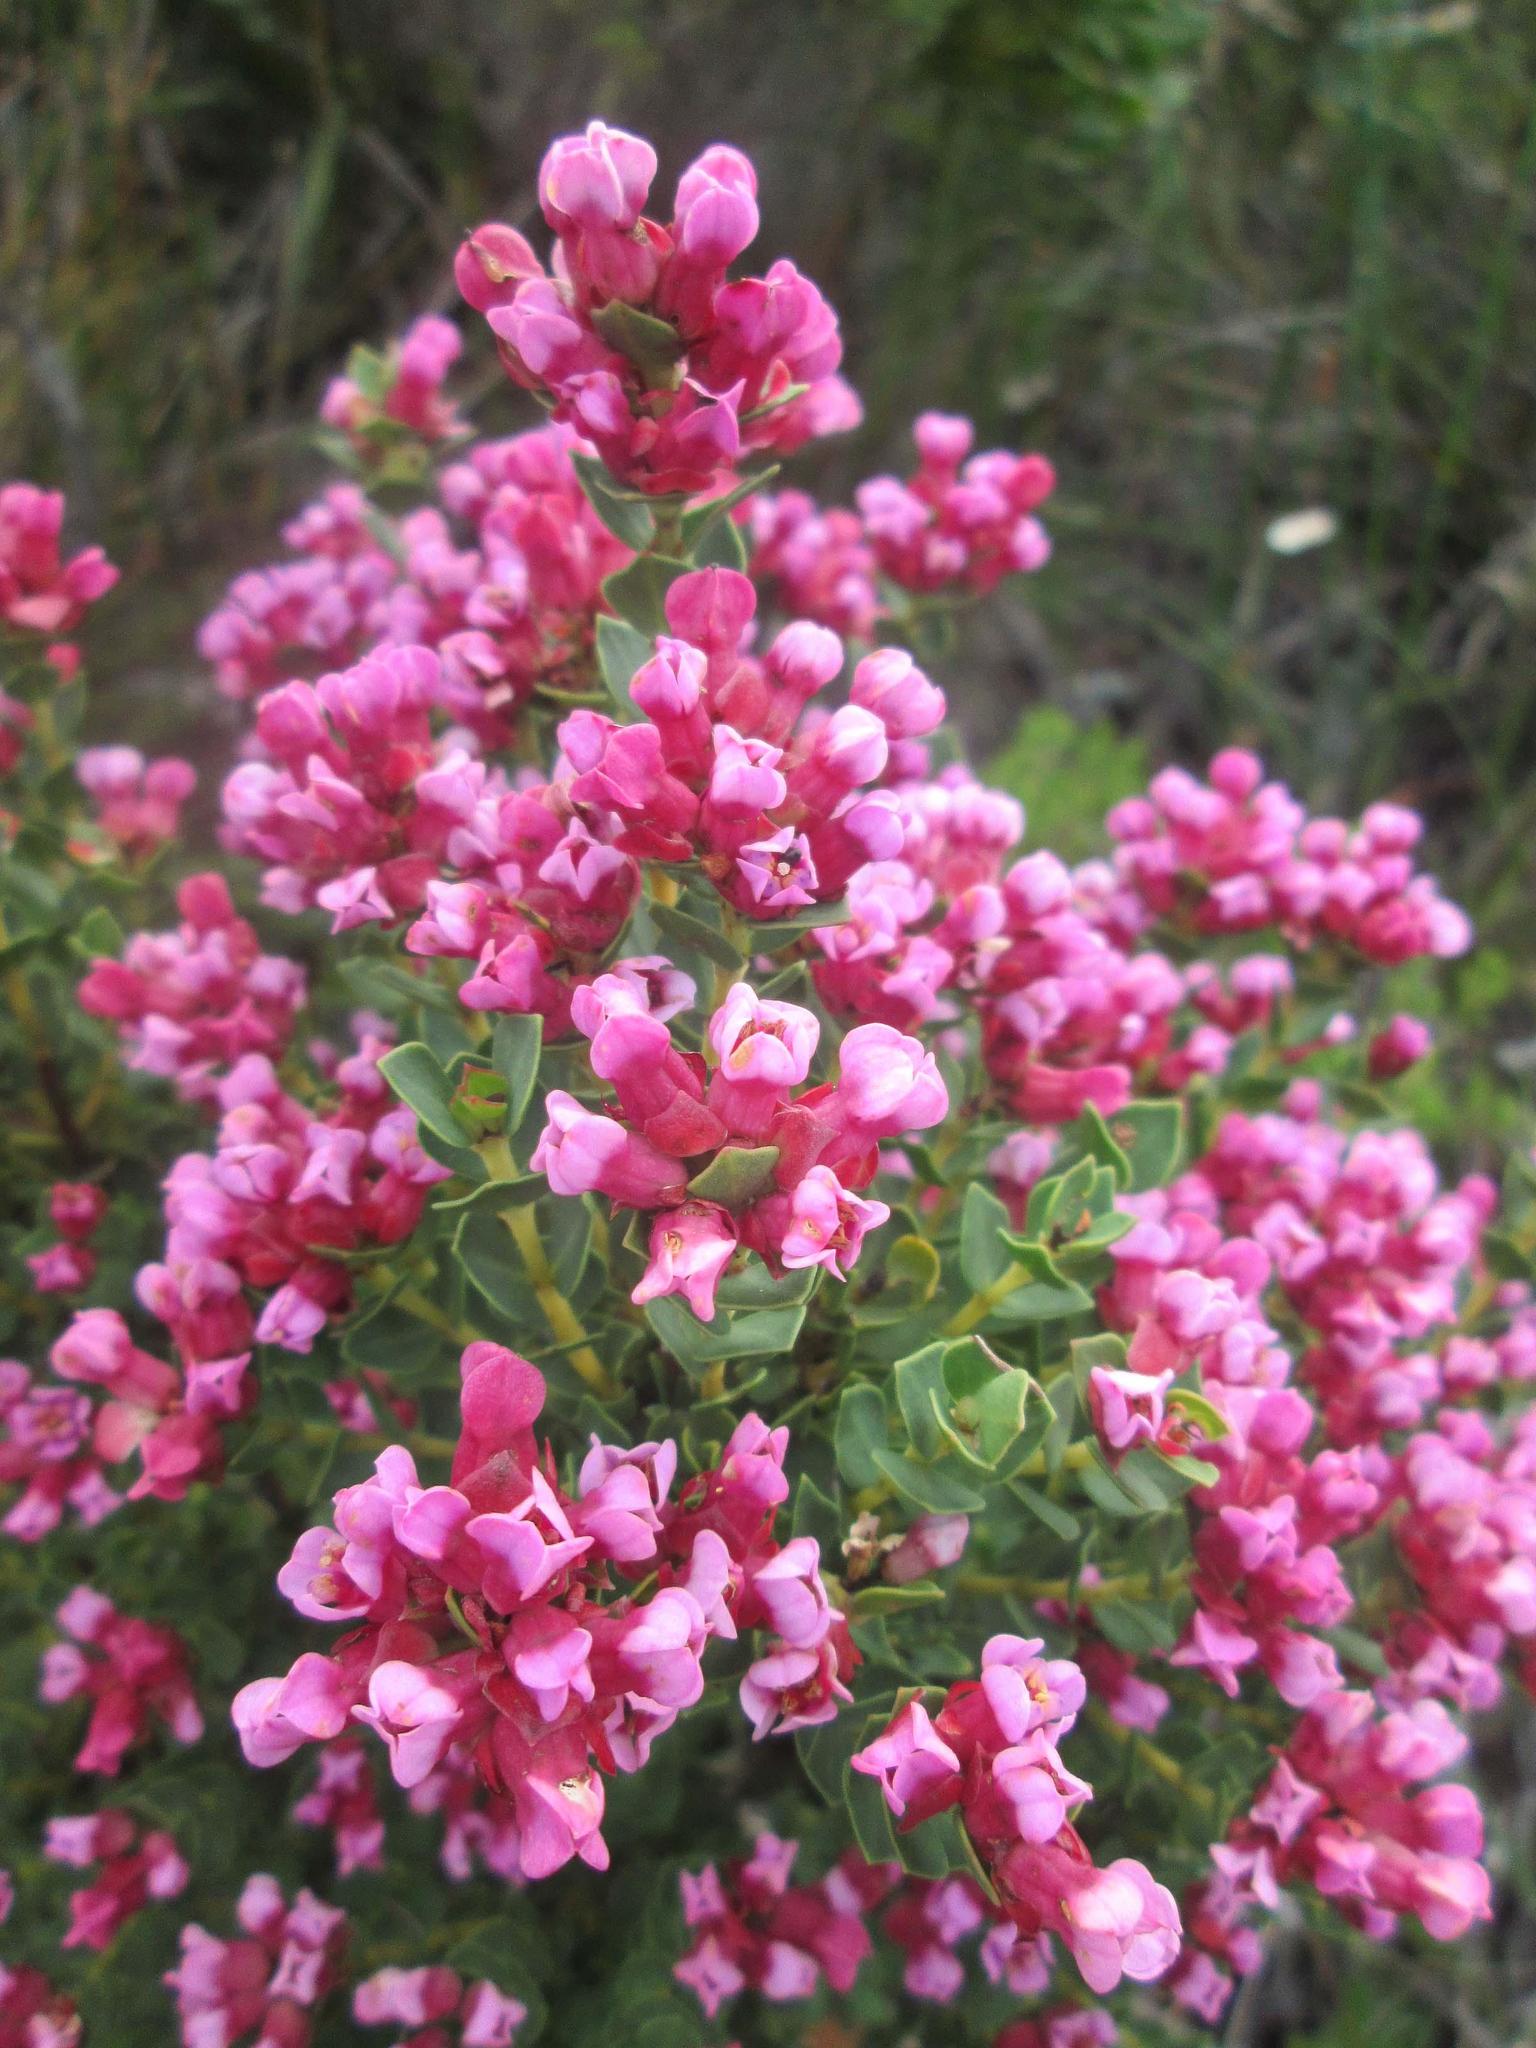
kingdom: Plantae
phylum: Tracheophyta
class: Magnoliopsida
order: Myrtales
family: Penaeaceae
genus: Brachysiphon
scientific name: Brachysiphon fucatus
